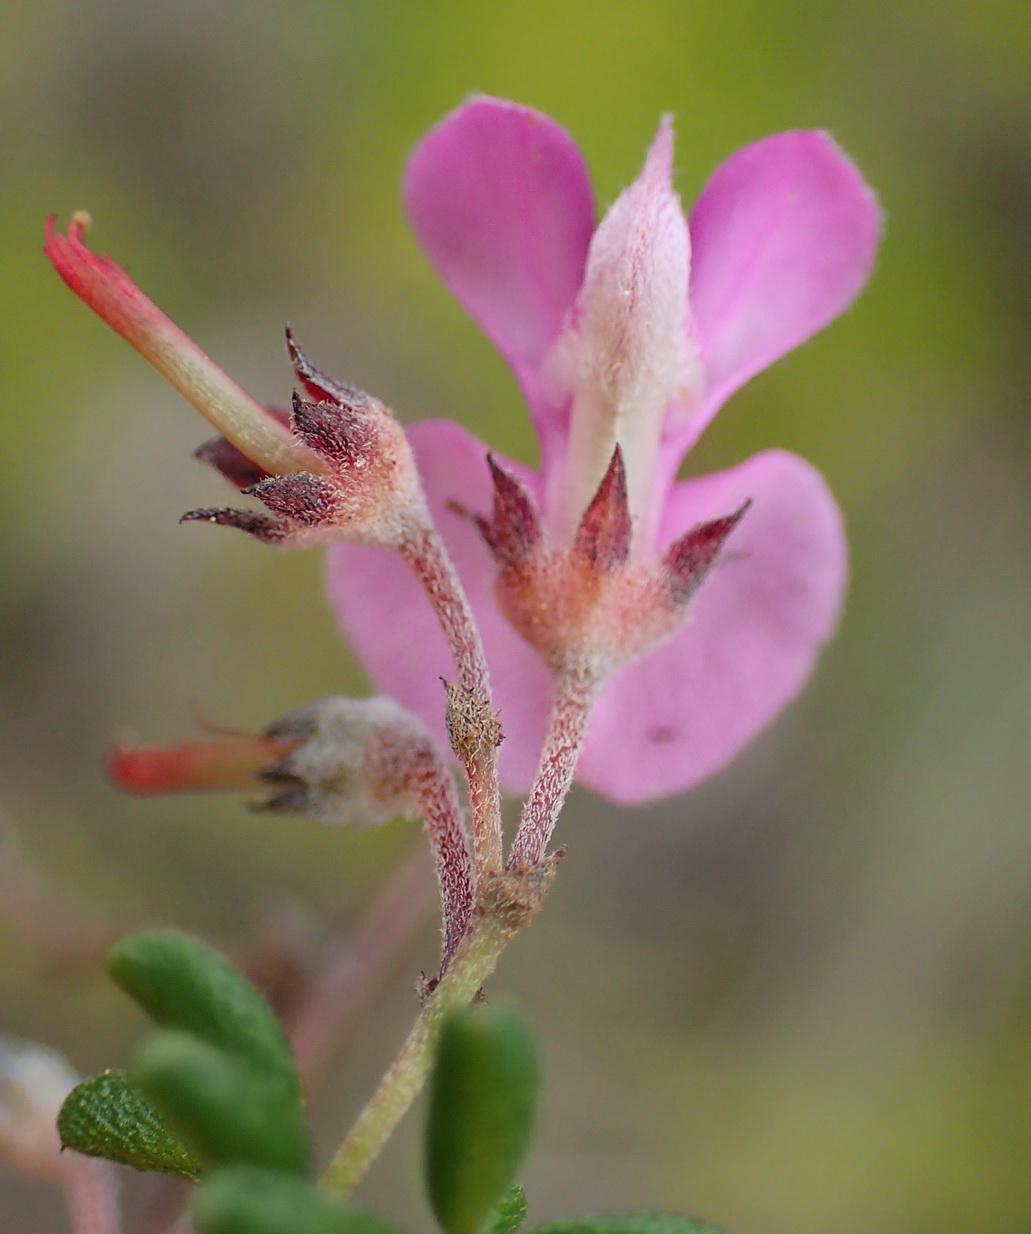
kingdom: Plantae
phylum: Tracheophyta
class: Magnoliopsida
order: Fabales
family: Fabaceae
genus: Indigofera
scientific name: Indigofera concava
